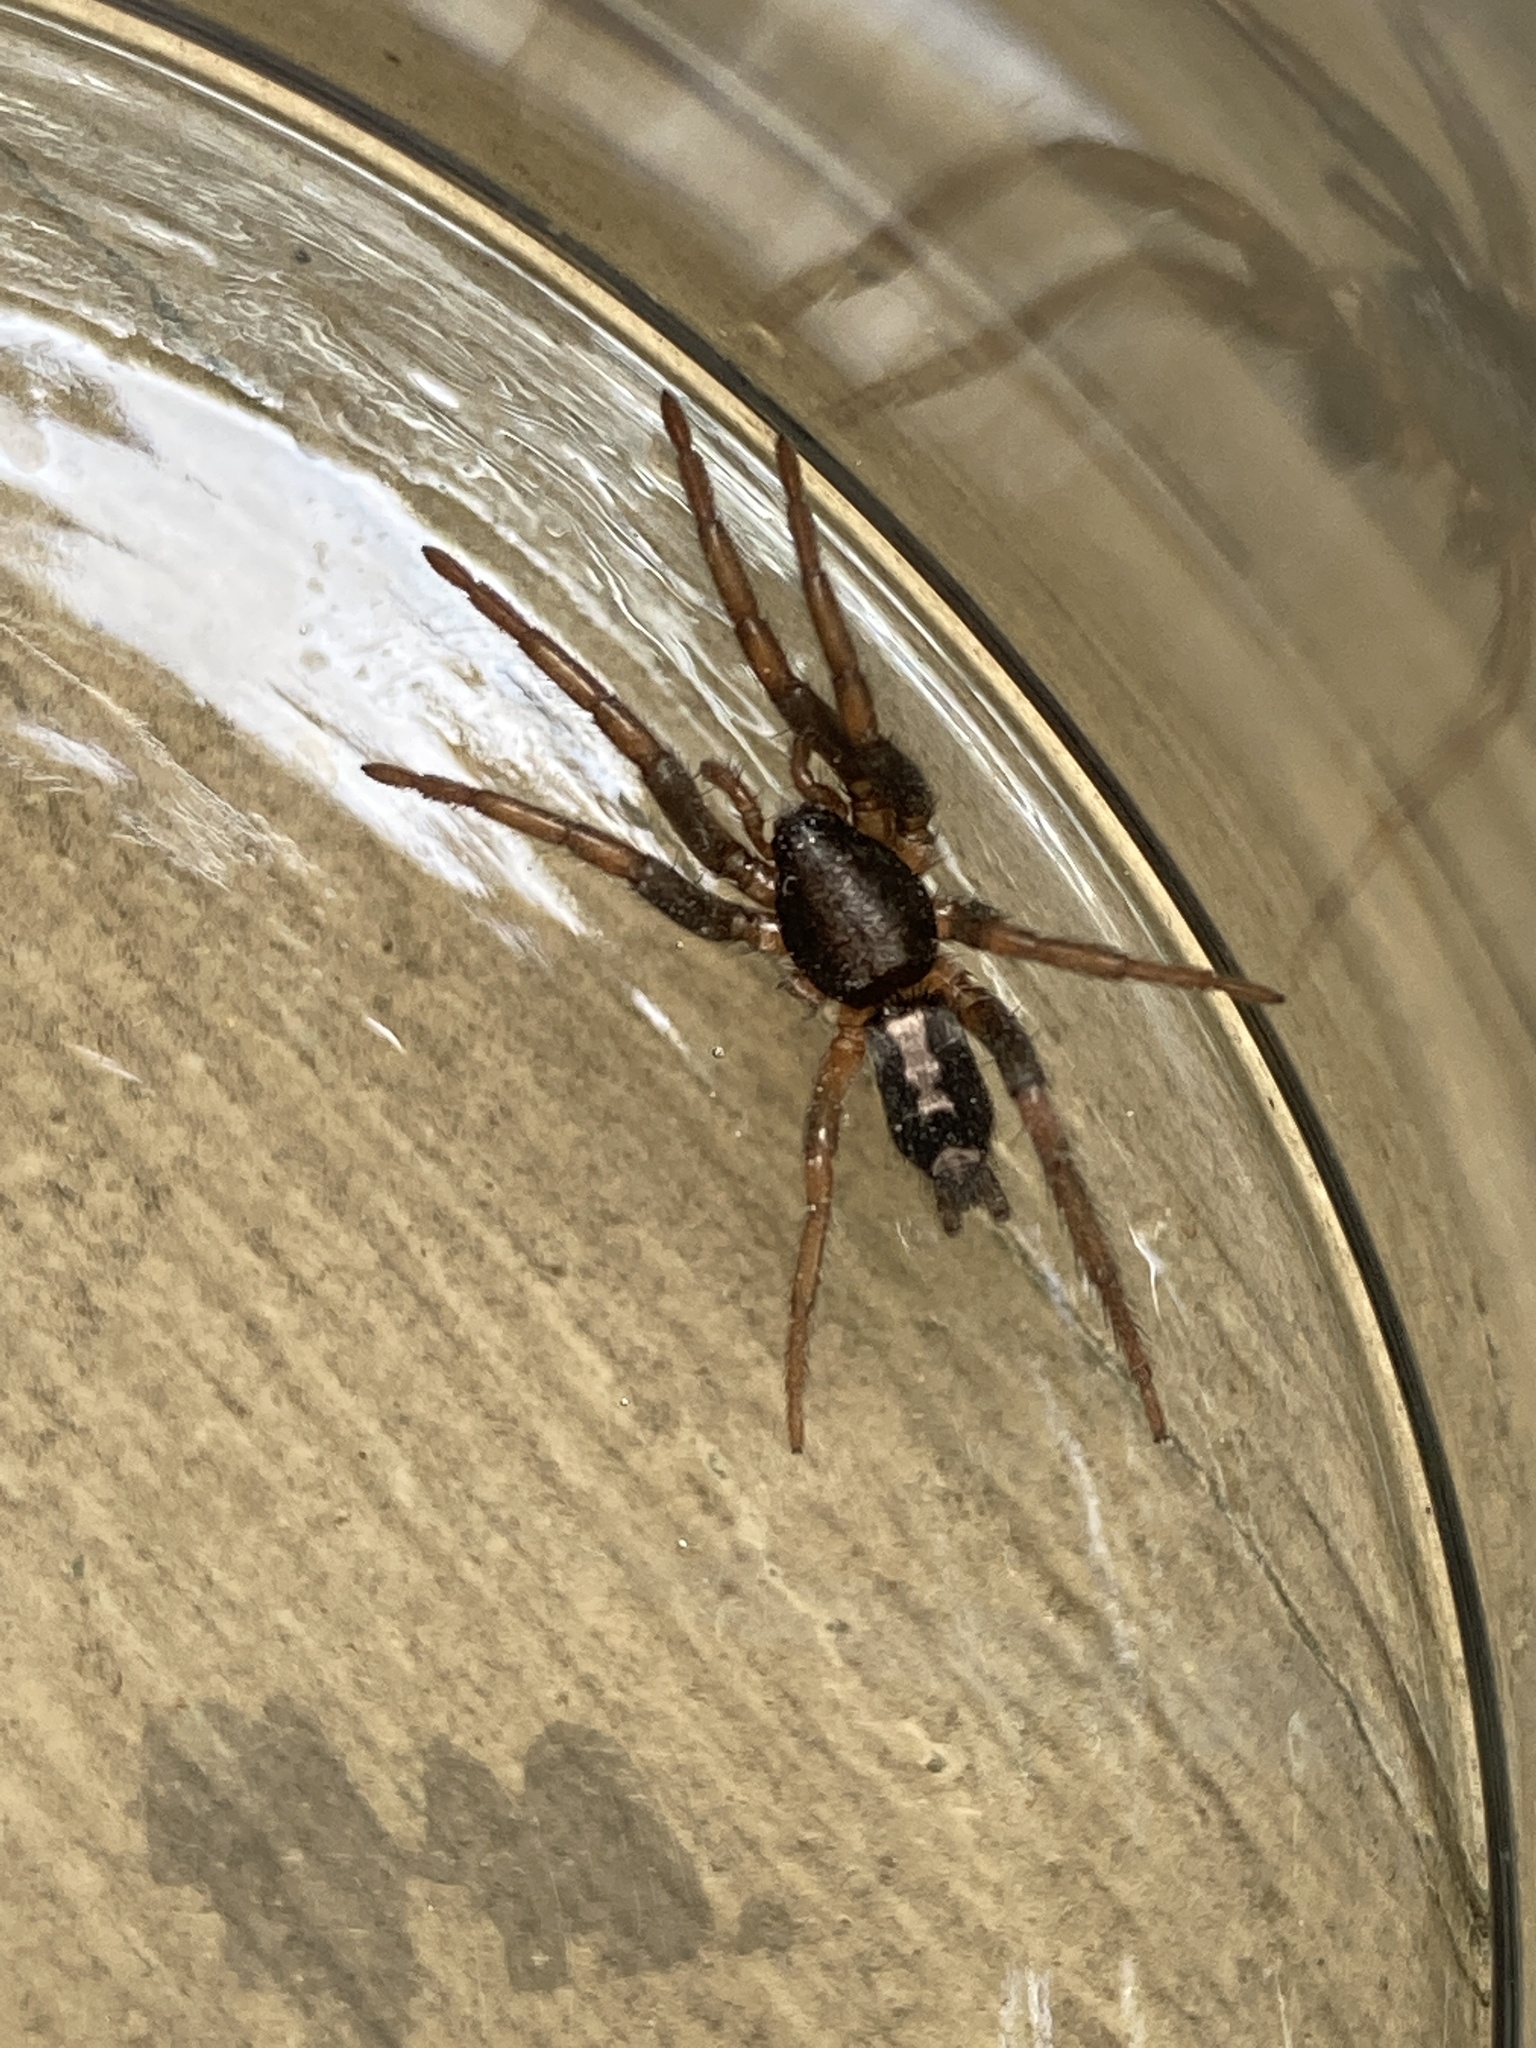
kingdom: Animalia
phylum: Arthropoda
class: Arachnida
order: Araneae
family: Gnaphosidae
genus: Herpyllus
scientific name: Herpyllus ecclesiasticus
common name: Eastern parson spider
